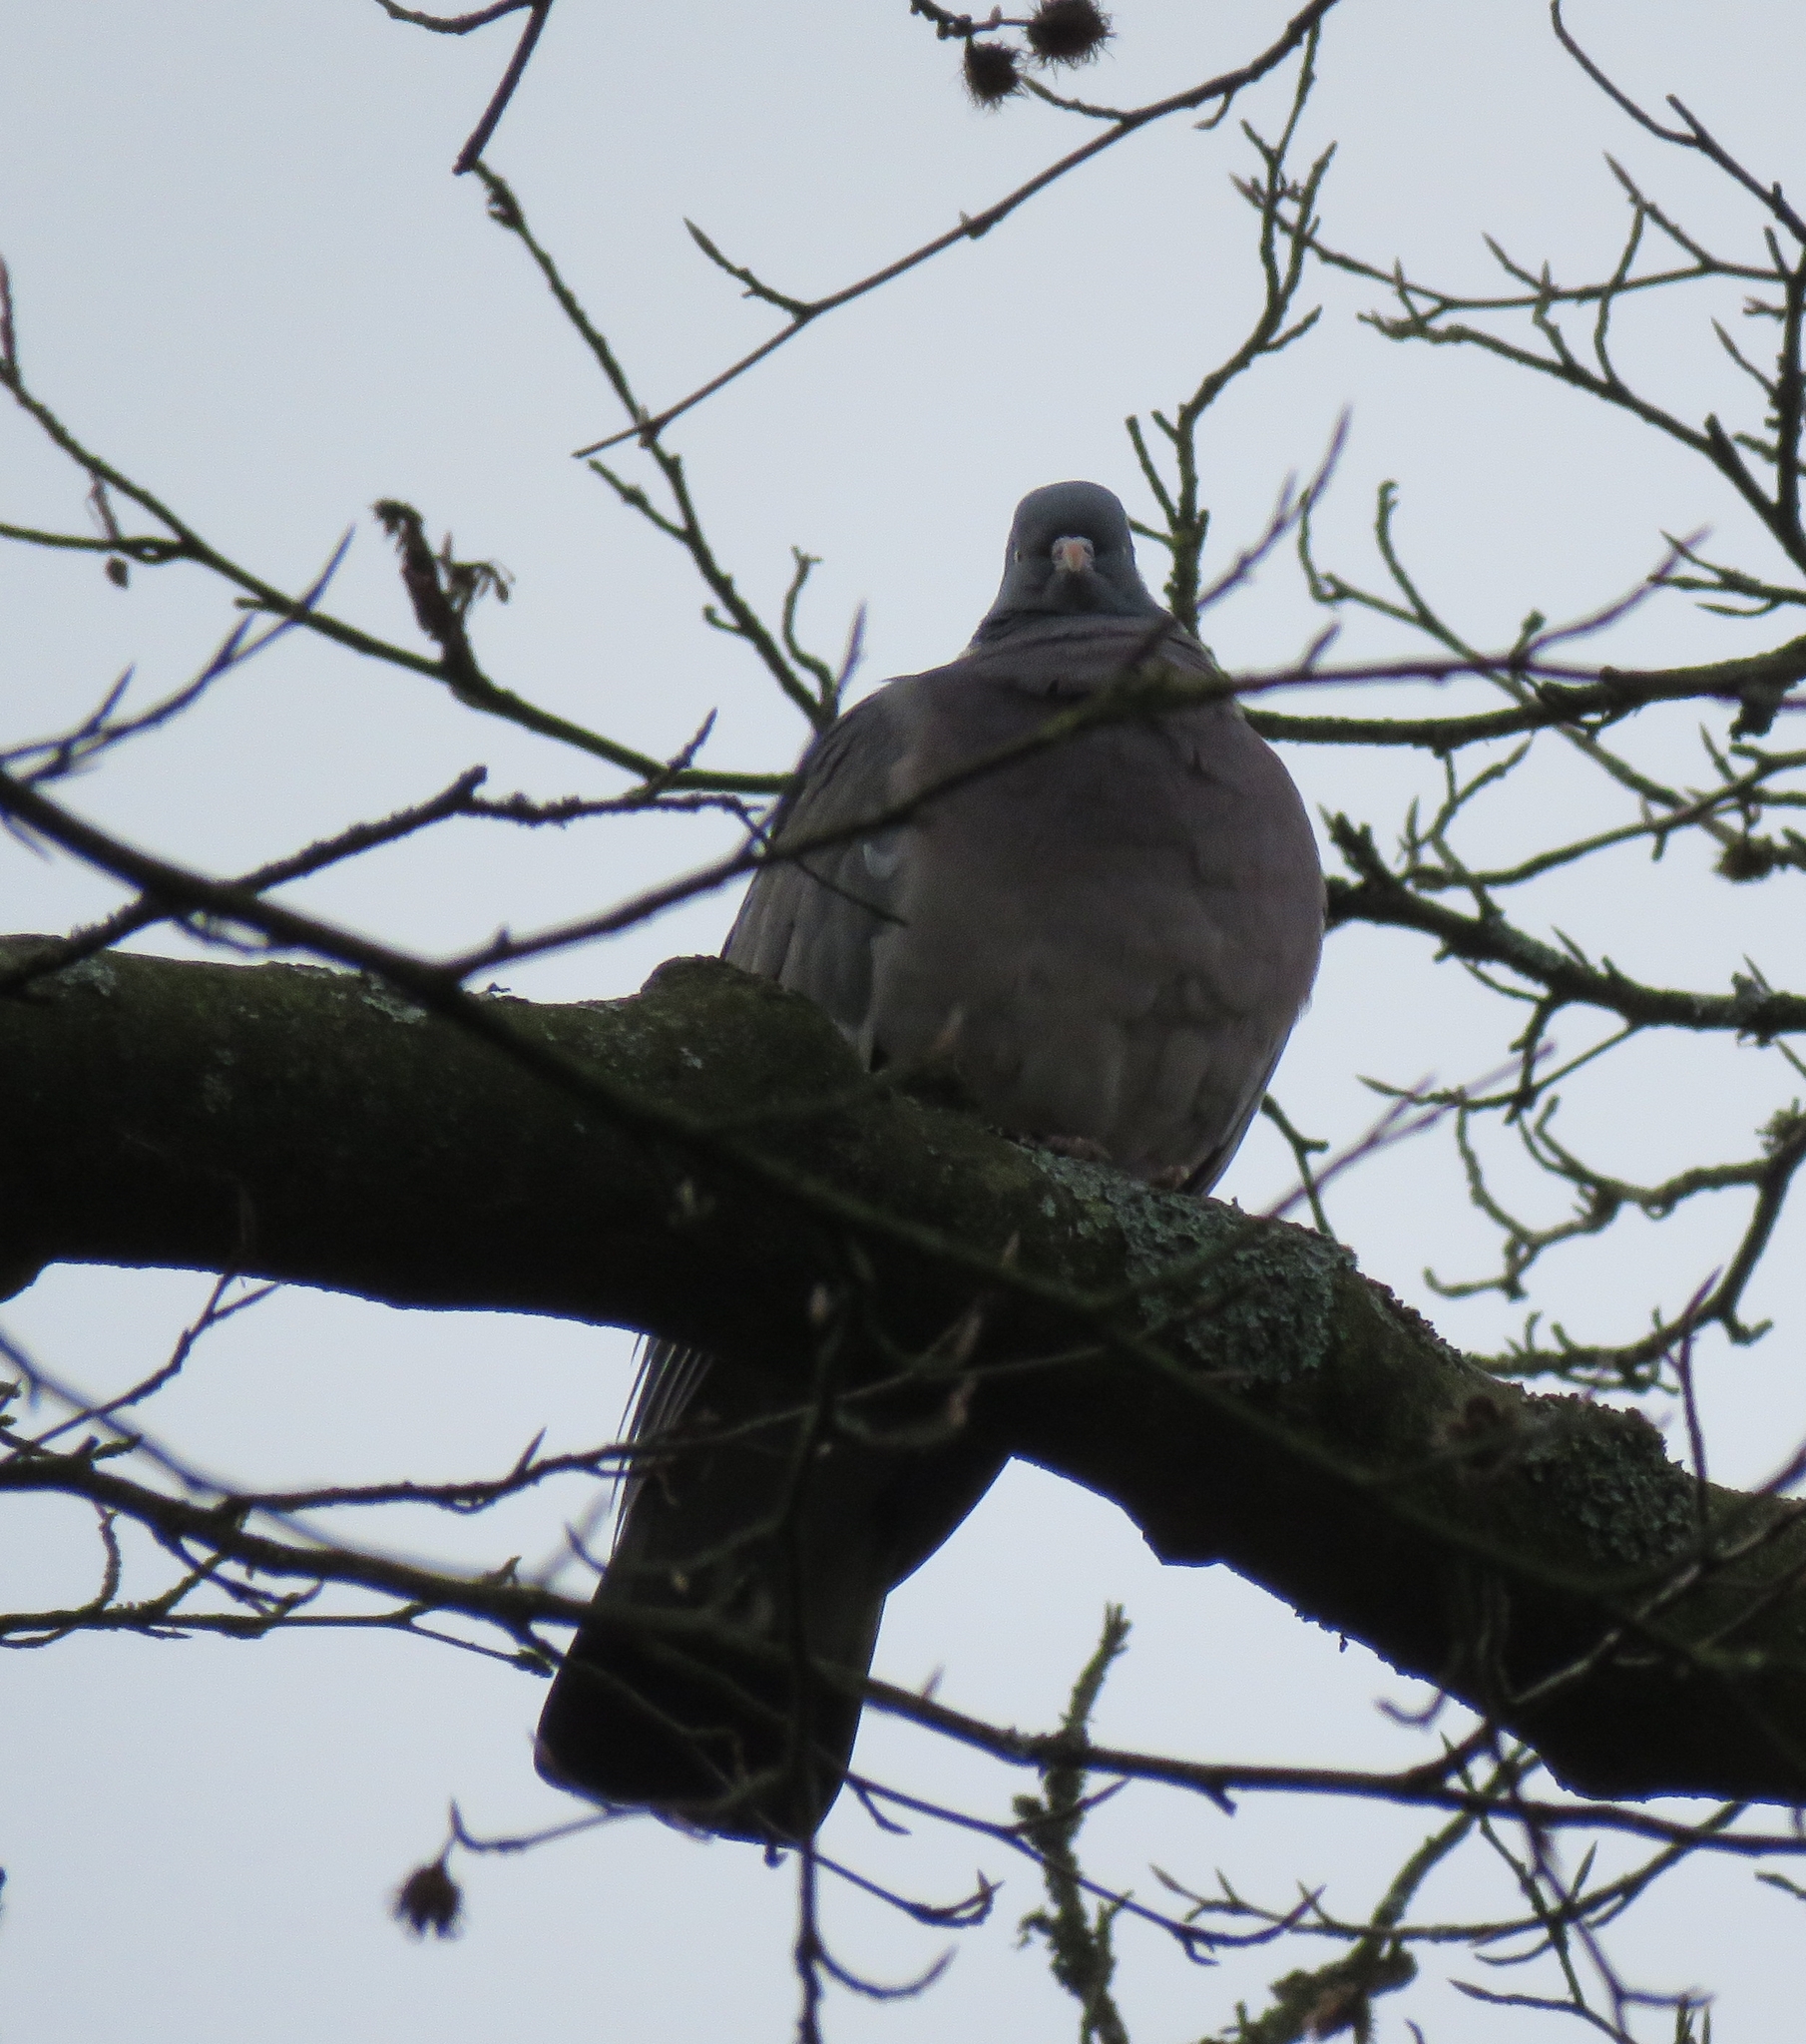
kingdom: Animalia
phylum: Chordata
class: Aves
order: Columbiformes
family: Columbidae
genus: Columba
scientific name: Columba palumbus
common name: Common wood pigeon
